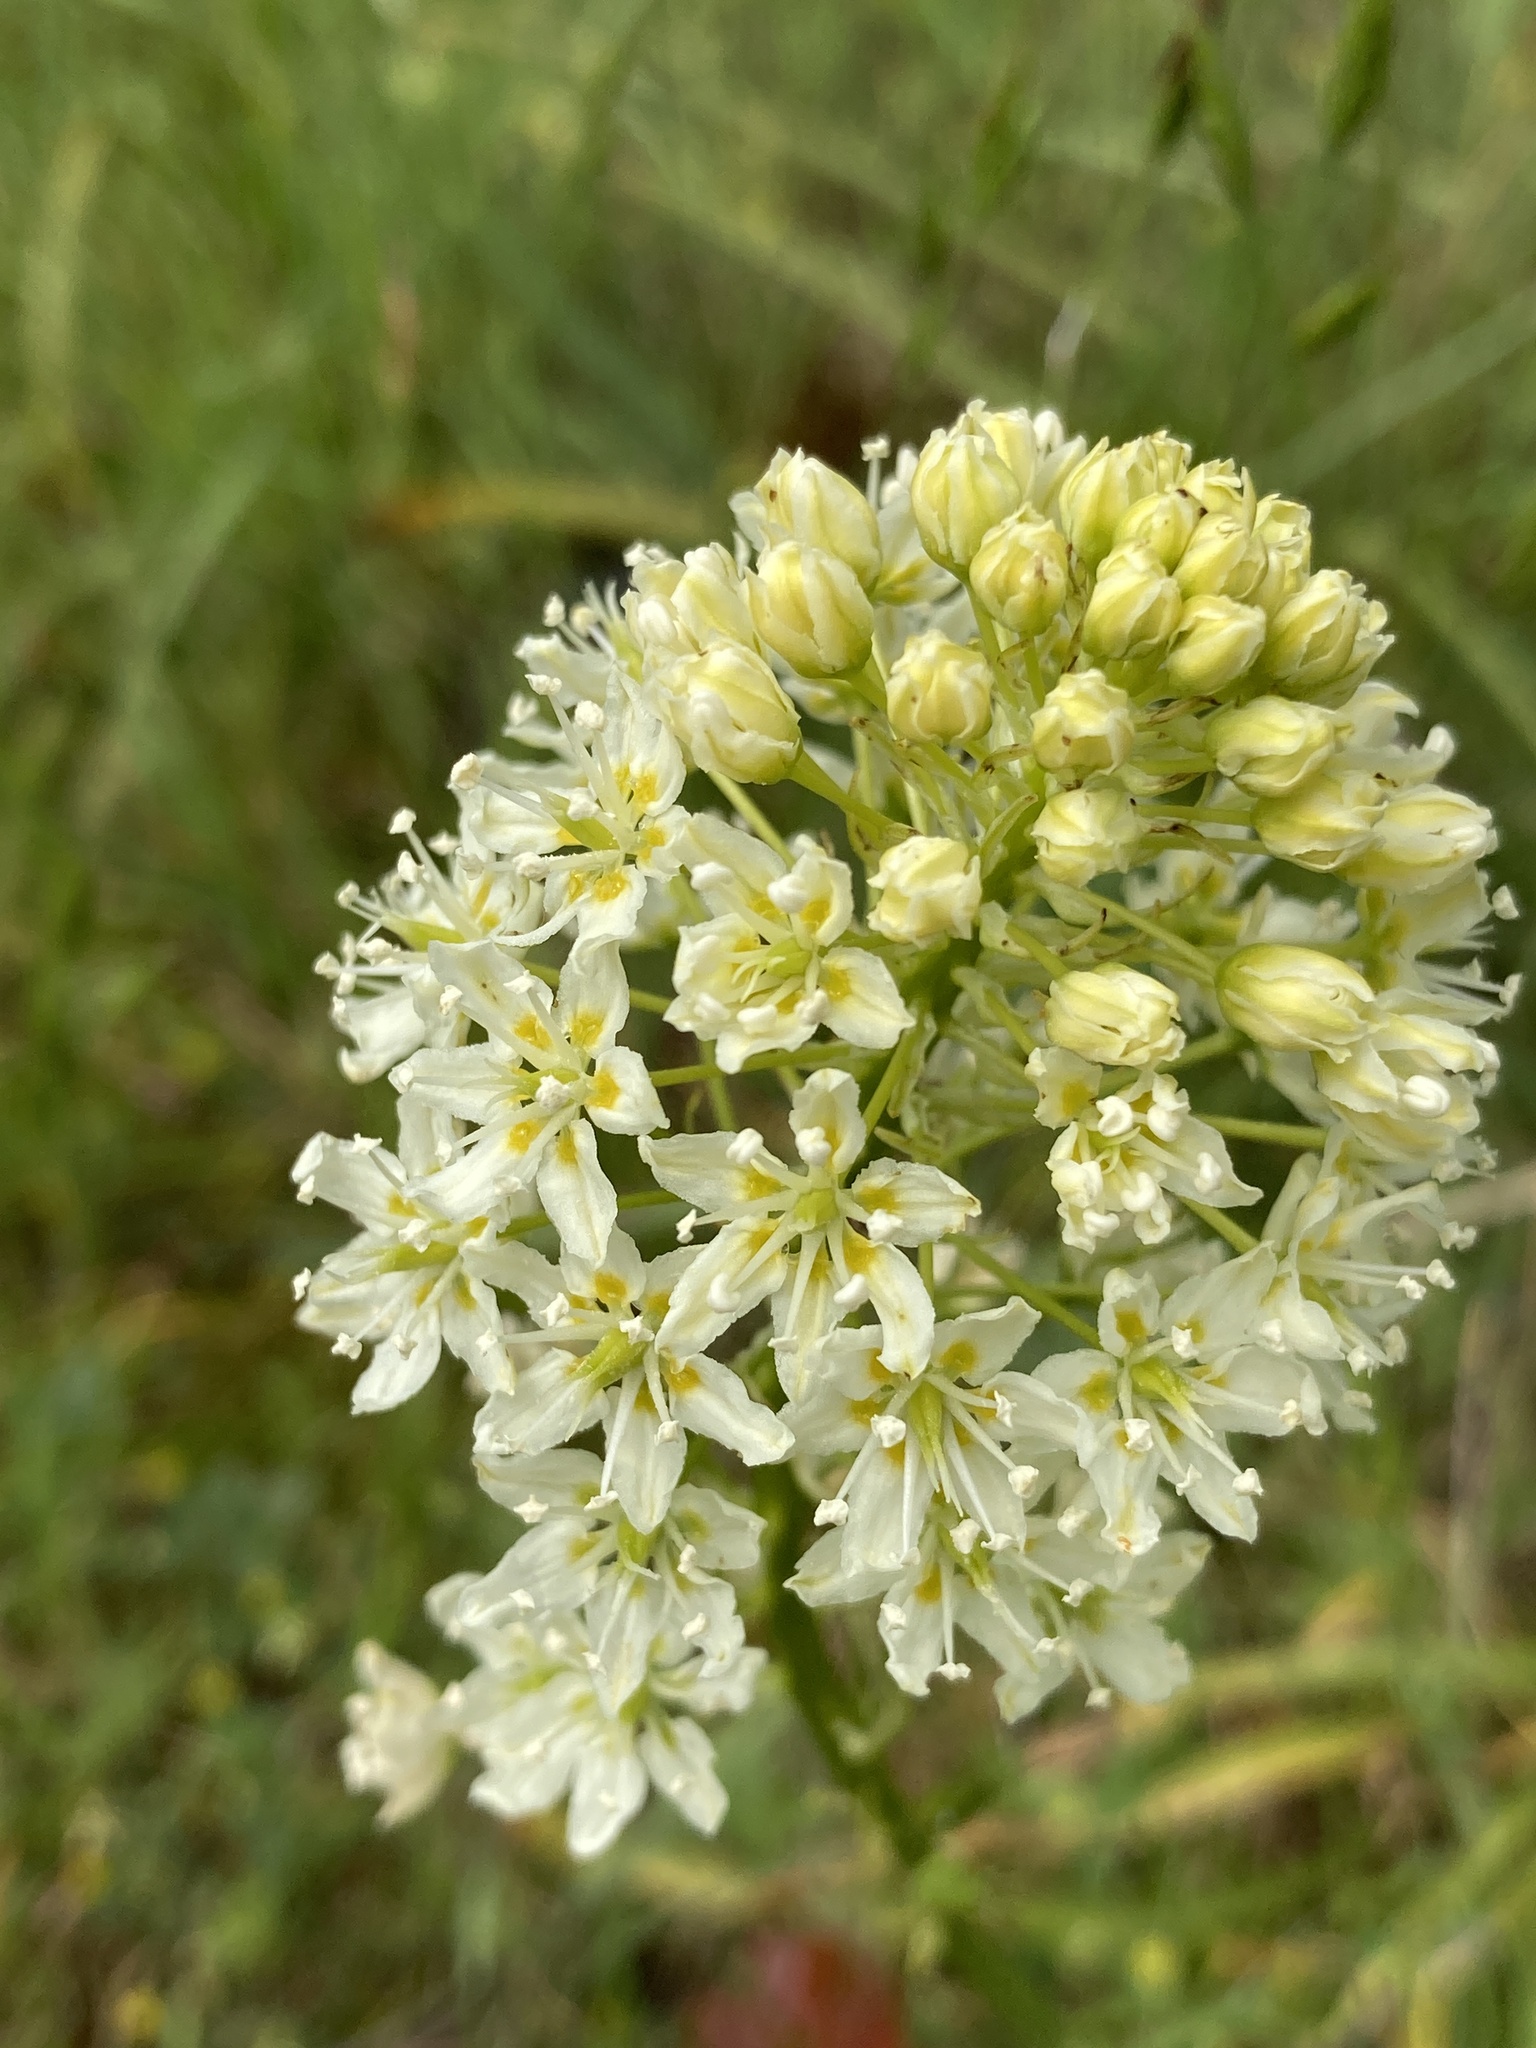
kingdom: Plantae
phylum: Tracheophyta
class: Liliopsida
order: Liliales
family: Melanthiaceae
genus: Toxicoscordion
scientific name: Toxicoscordion venenosum
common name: Meadow death camas
